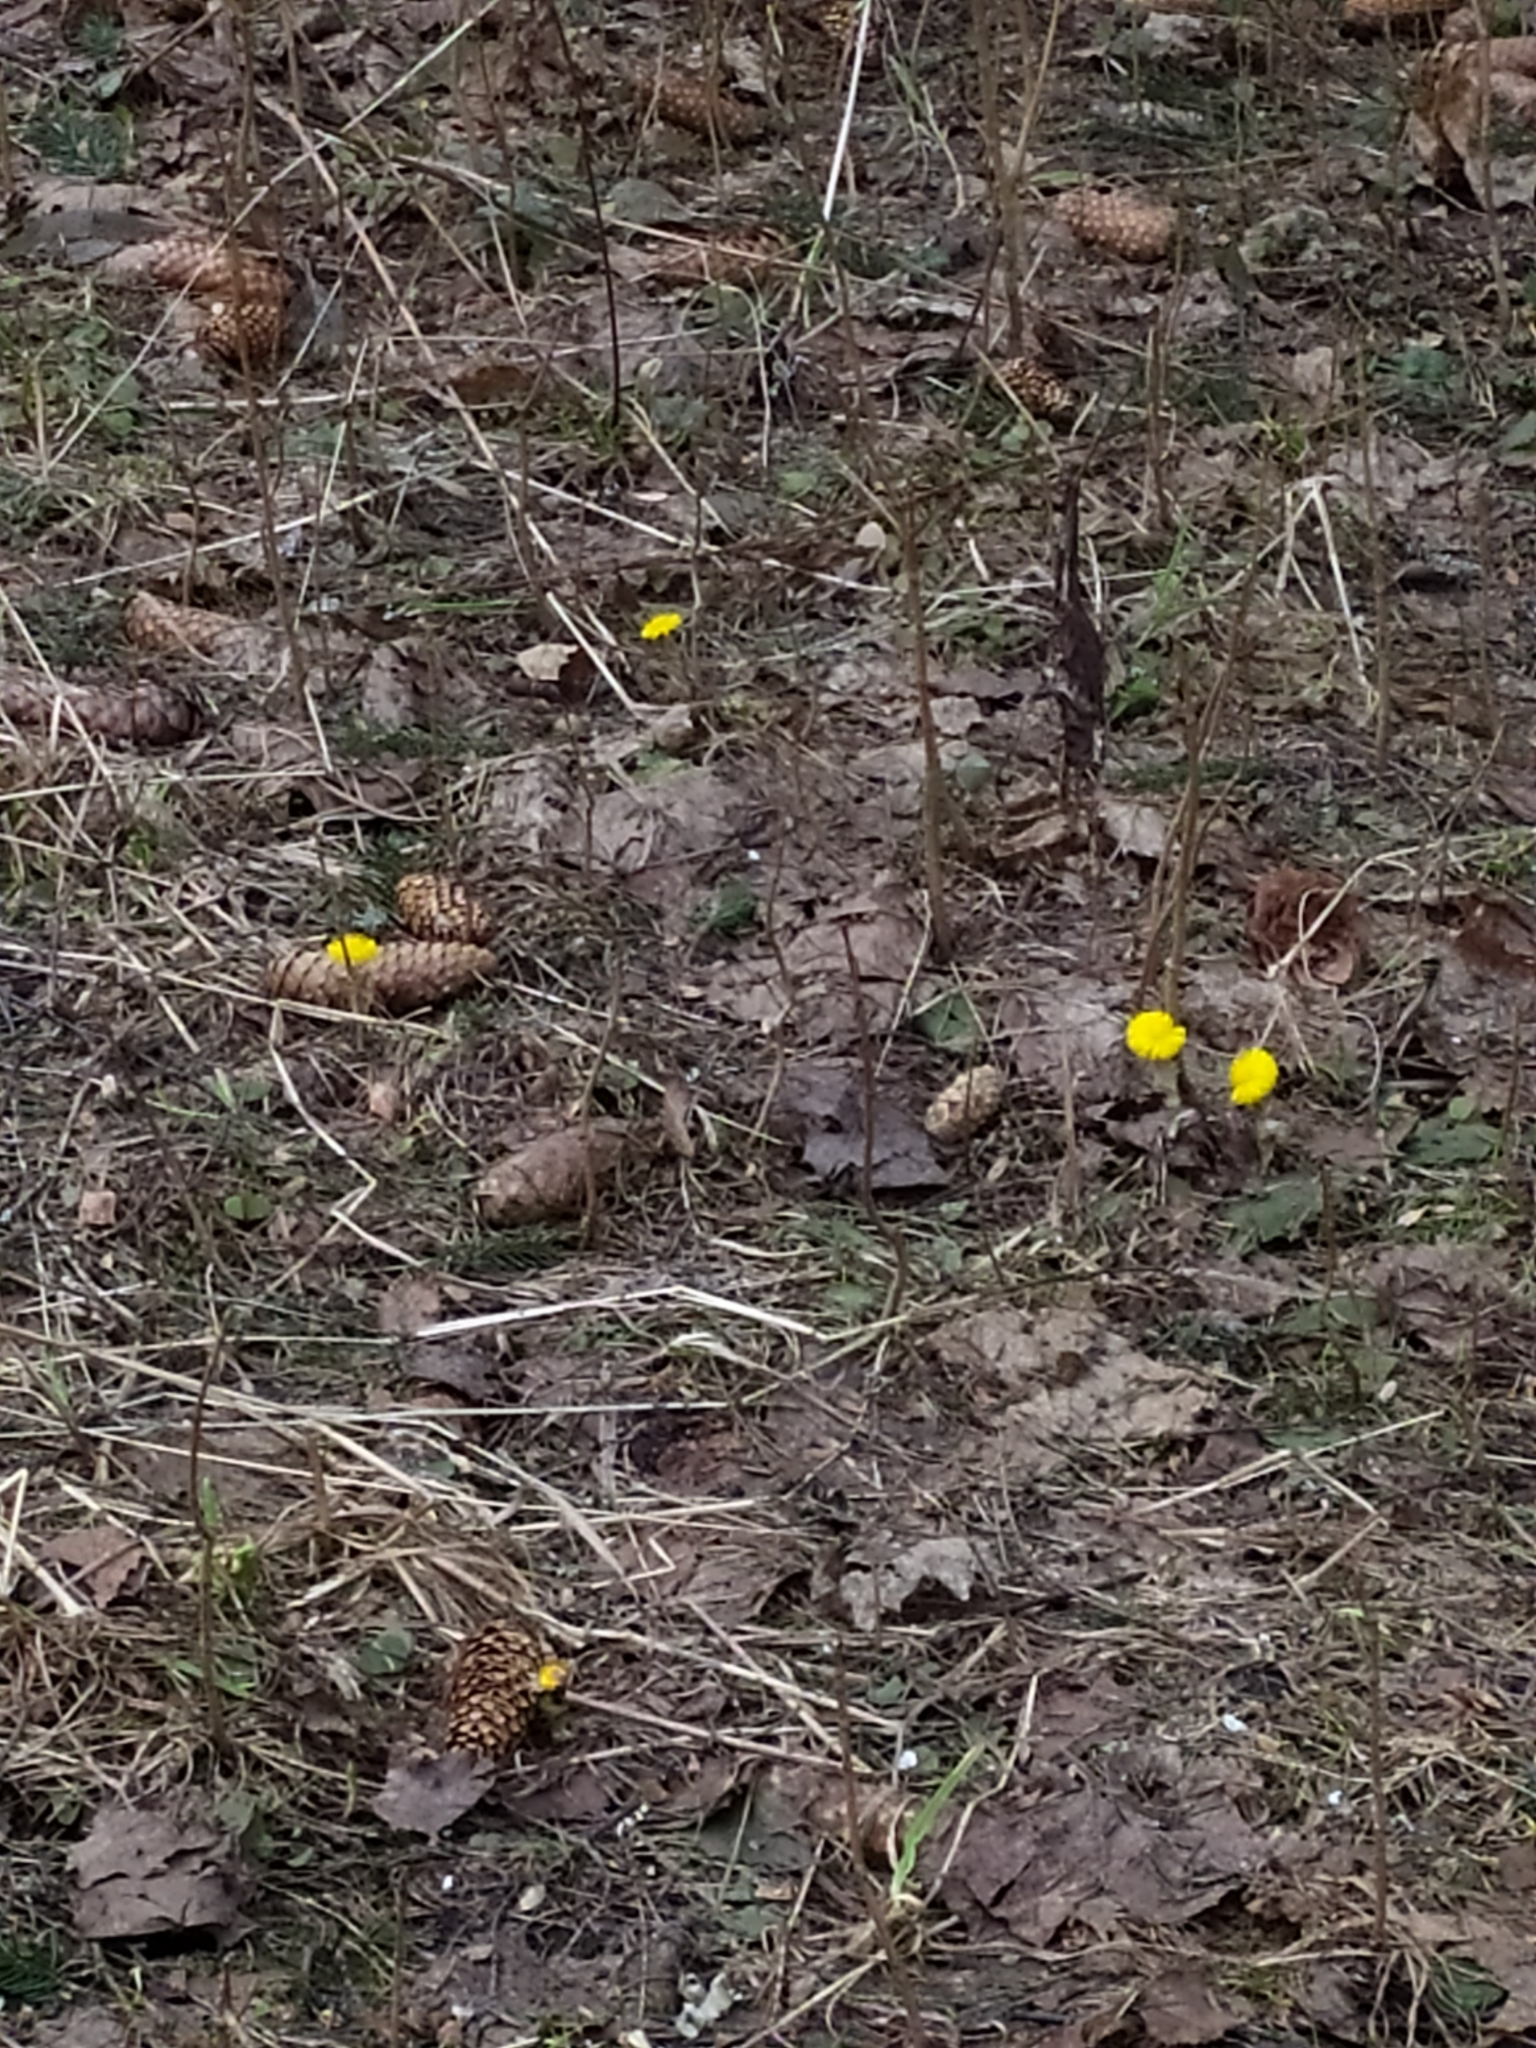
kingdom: Plantae
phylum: Tracheophyta
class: Magnoliopsida
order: Asterales
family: Asteraceae
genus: Tussilago
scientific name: Tussilago farfara
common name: Coltsfoot
